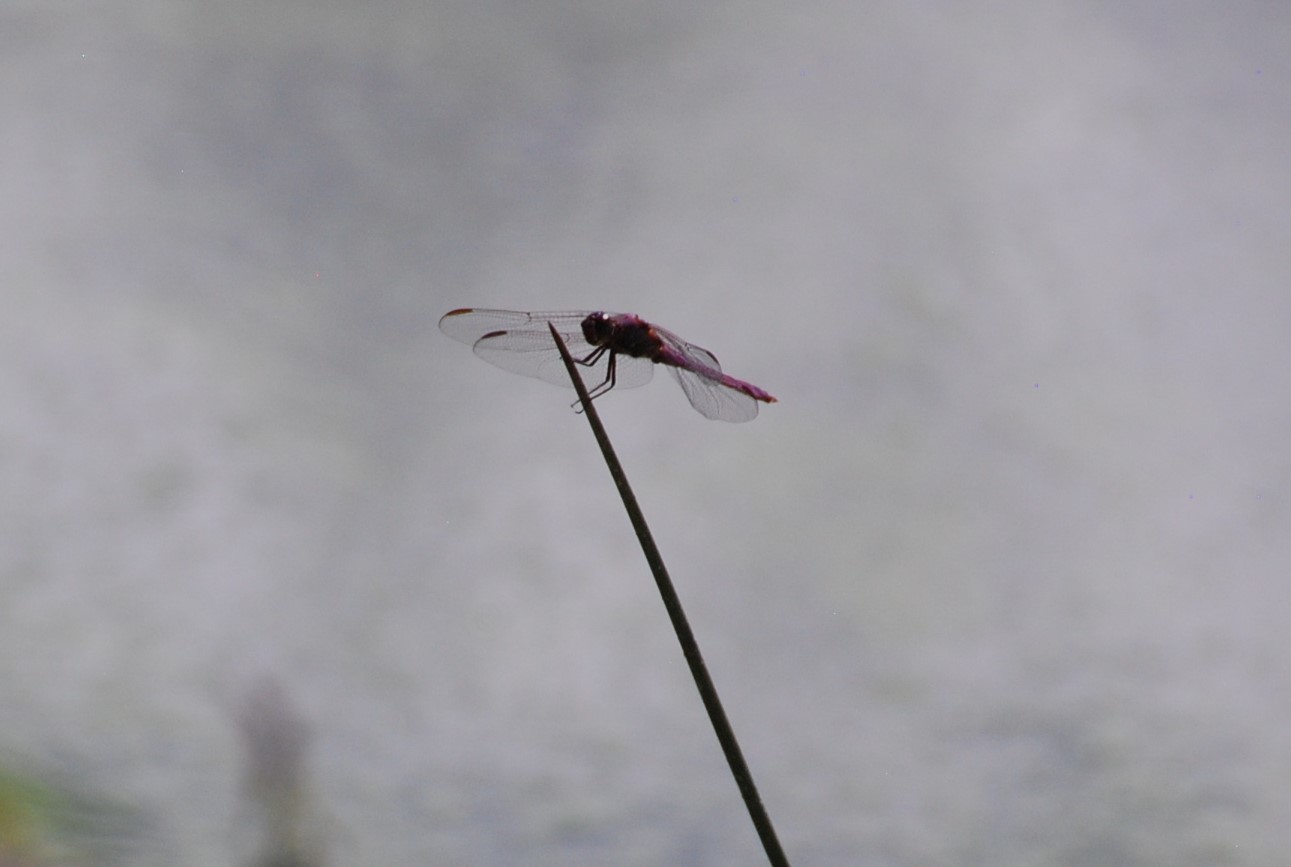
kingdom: Animalia
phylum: Arthropoda
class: Insecta
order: Odonata
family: Libellulidae
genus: Orthemis
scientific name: Orthemis ferruginea
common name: Roseate skimmer
